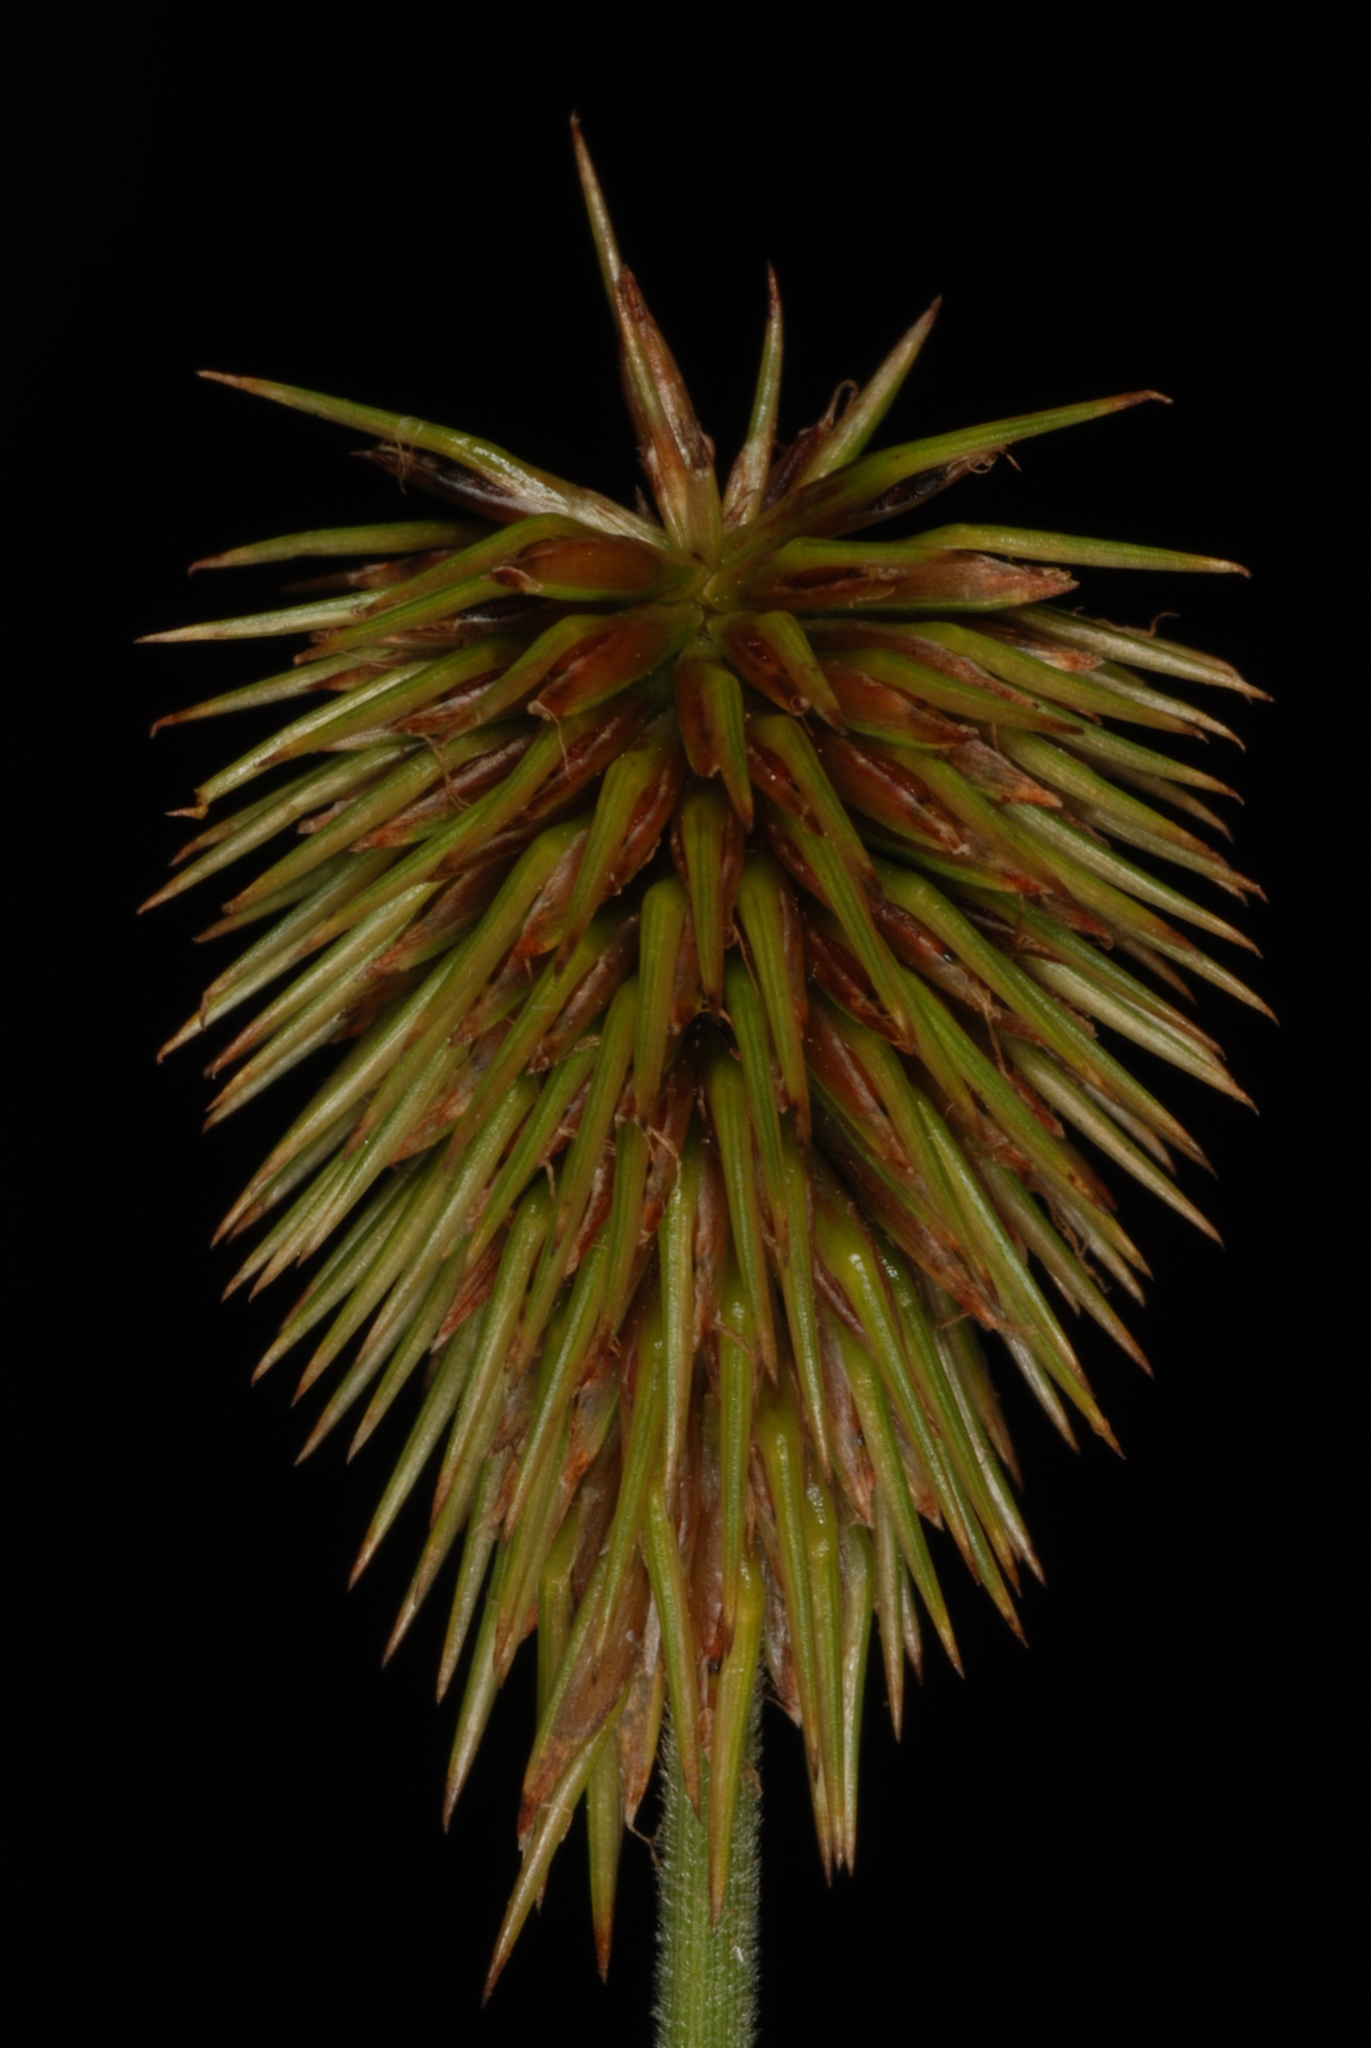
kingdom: Plantae
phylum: Tracheophyta
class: Liliopsida
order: Poales
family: Cyperaceae
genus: Cyperus
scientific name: Cyperus plukenetii
